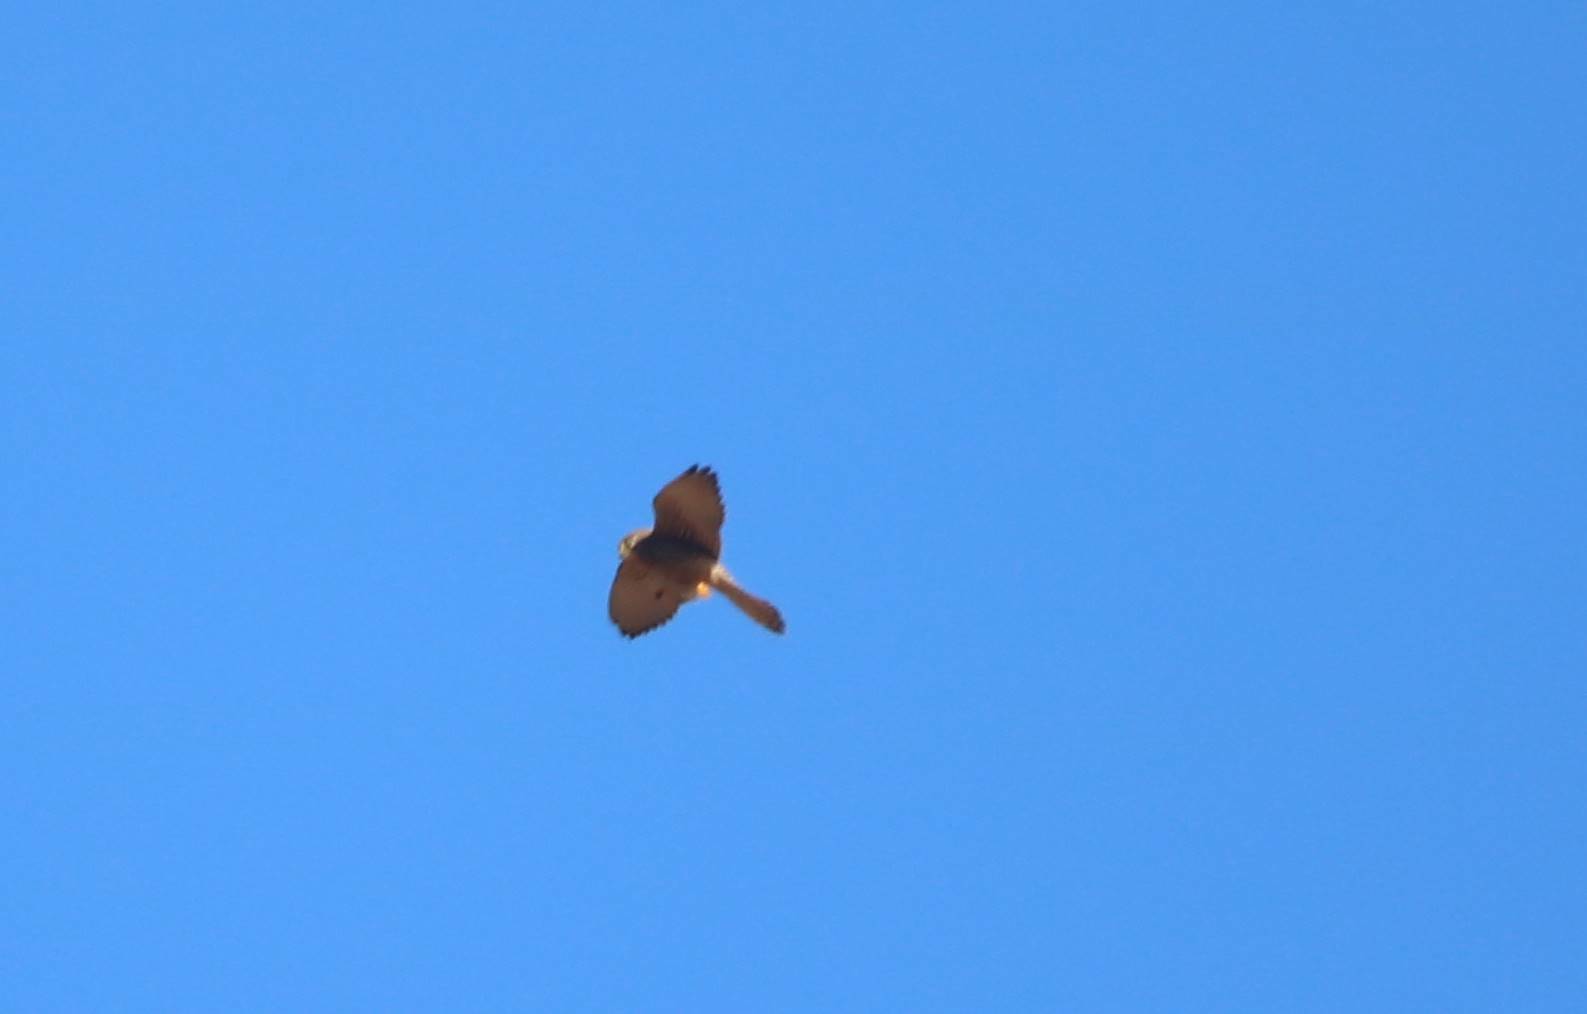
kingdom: Animalia
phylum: Chordata
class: Aves
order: Falconiformes
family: Falconidae
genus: Falco
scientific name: Falco tinnunculus
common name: Common kestrel
